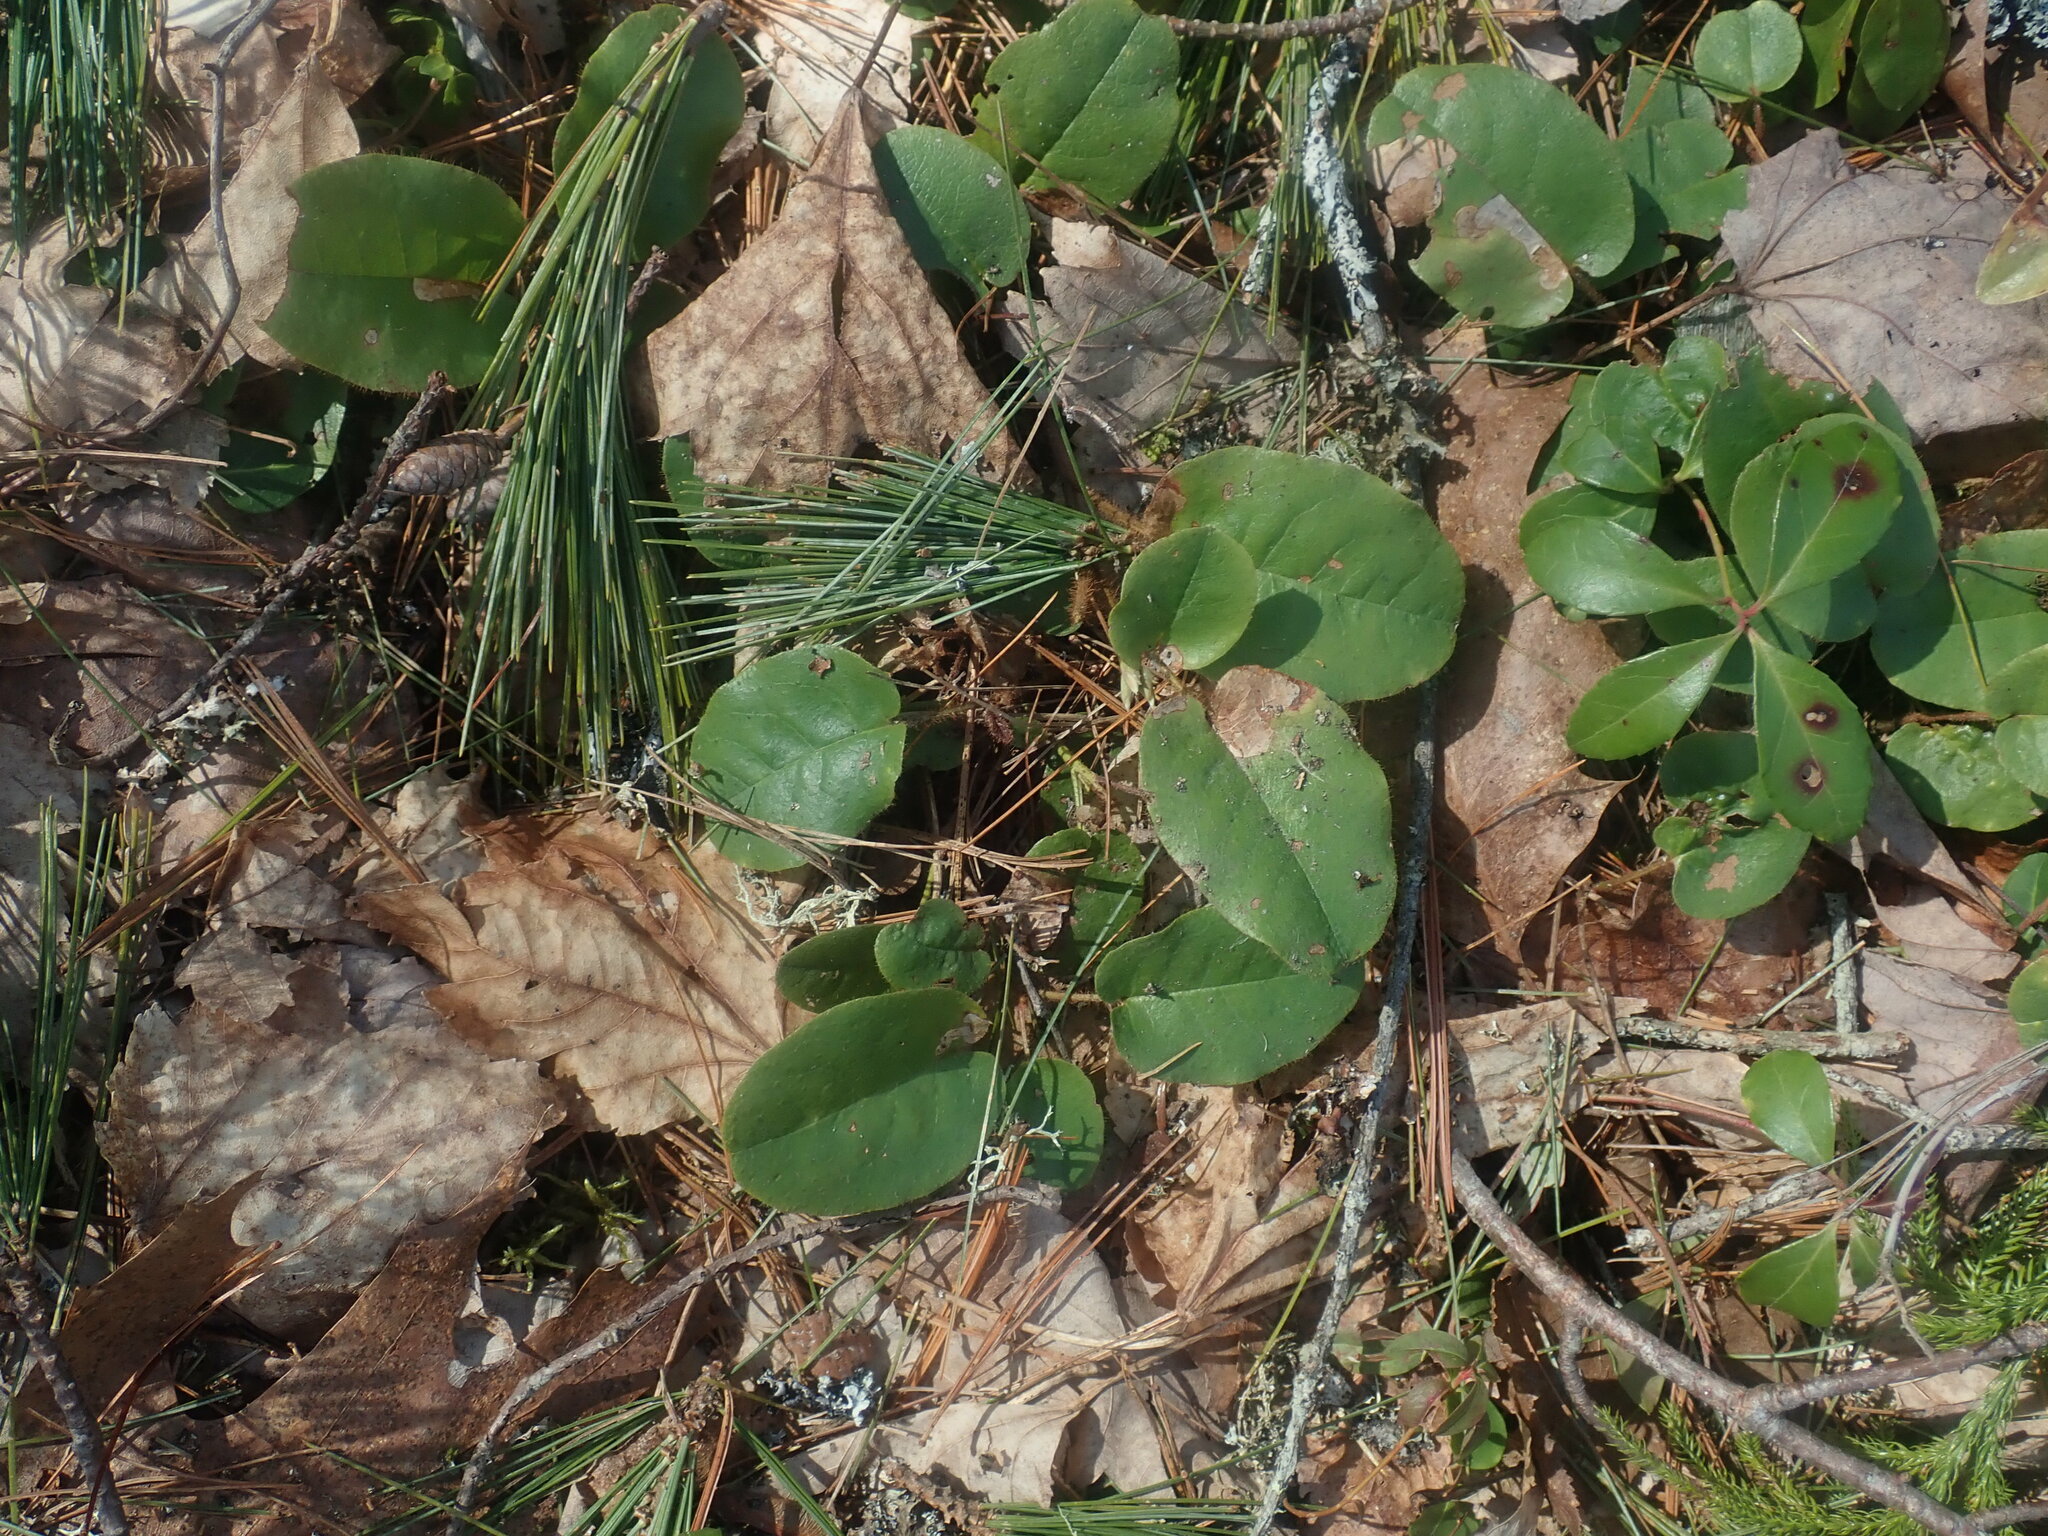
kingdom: Plantae
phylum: Tracheophyta
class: Magnoliopsida
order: Ericales
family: Ericaceae
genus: Epigaea
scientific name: Epigaea repens
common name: Gravelroot
